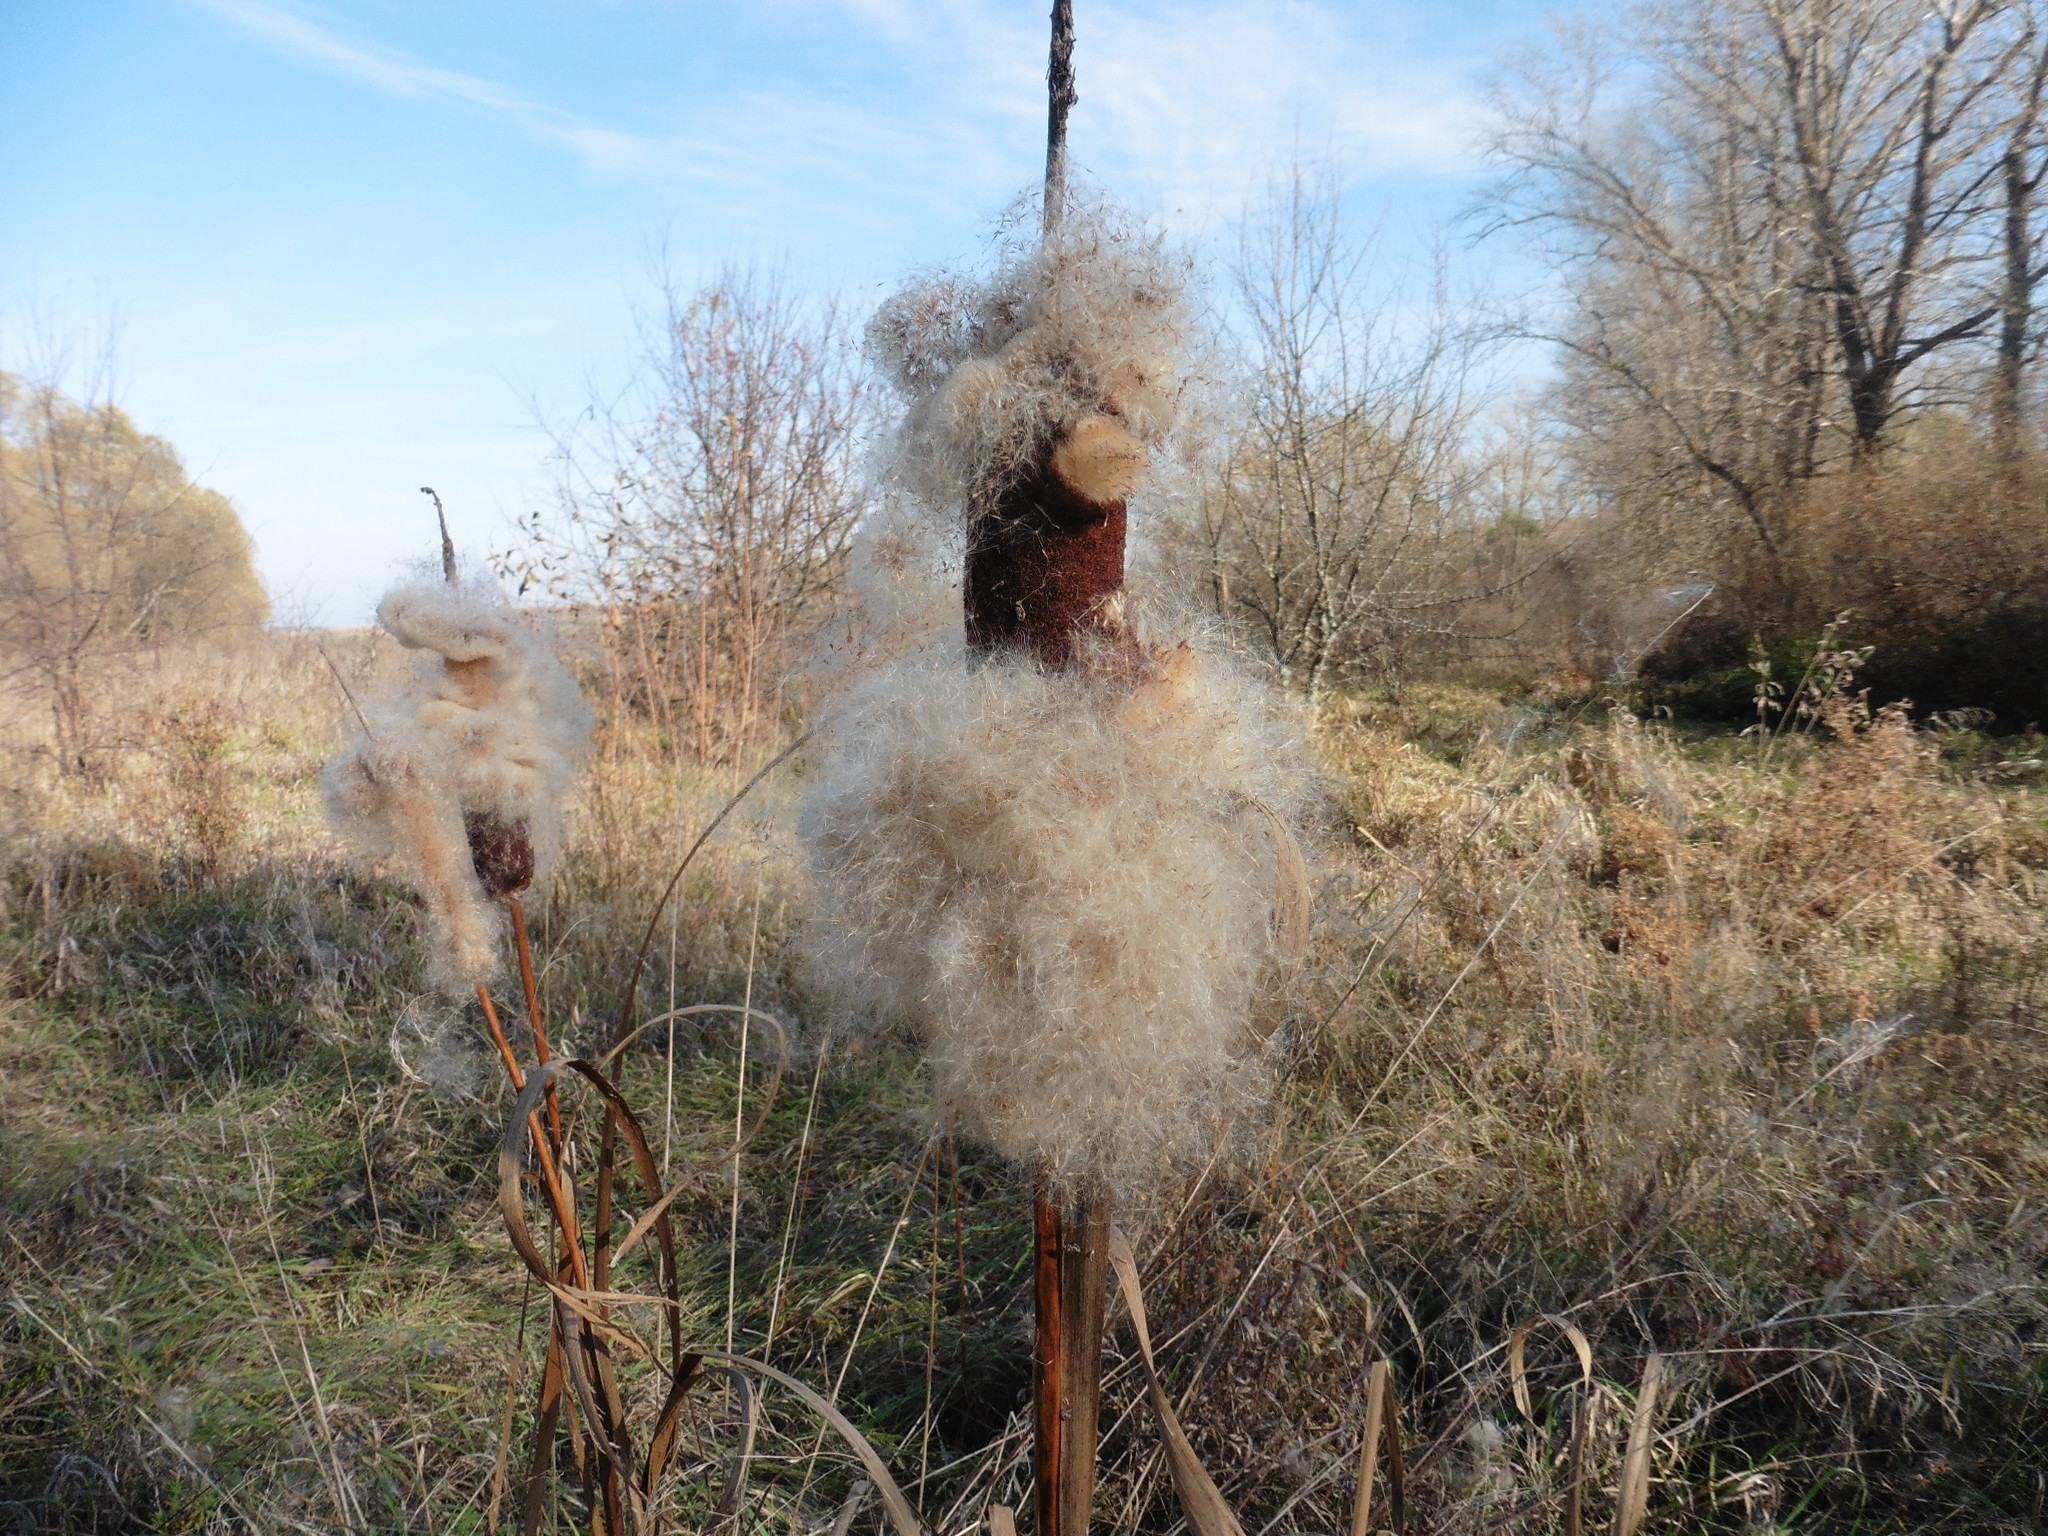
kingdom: Plantae
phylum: Tracheophyta
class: Liliopsida
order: Poales
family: Typhaceae
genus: Typha
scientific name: Typha latifolia
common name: Broadleaf cattail
